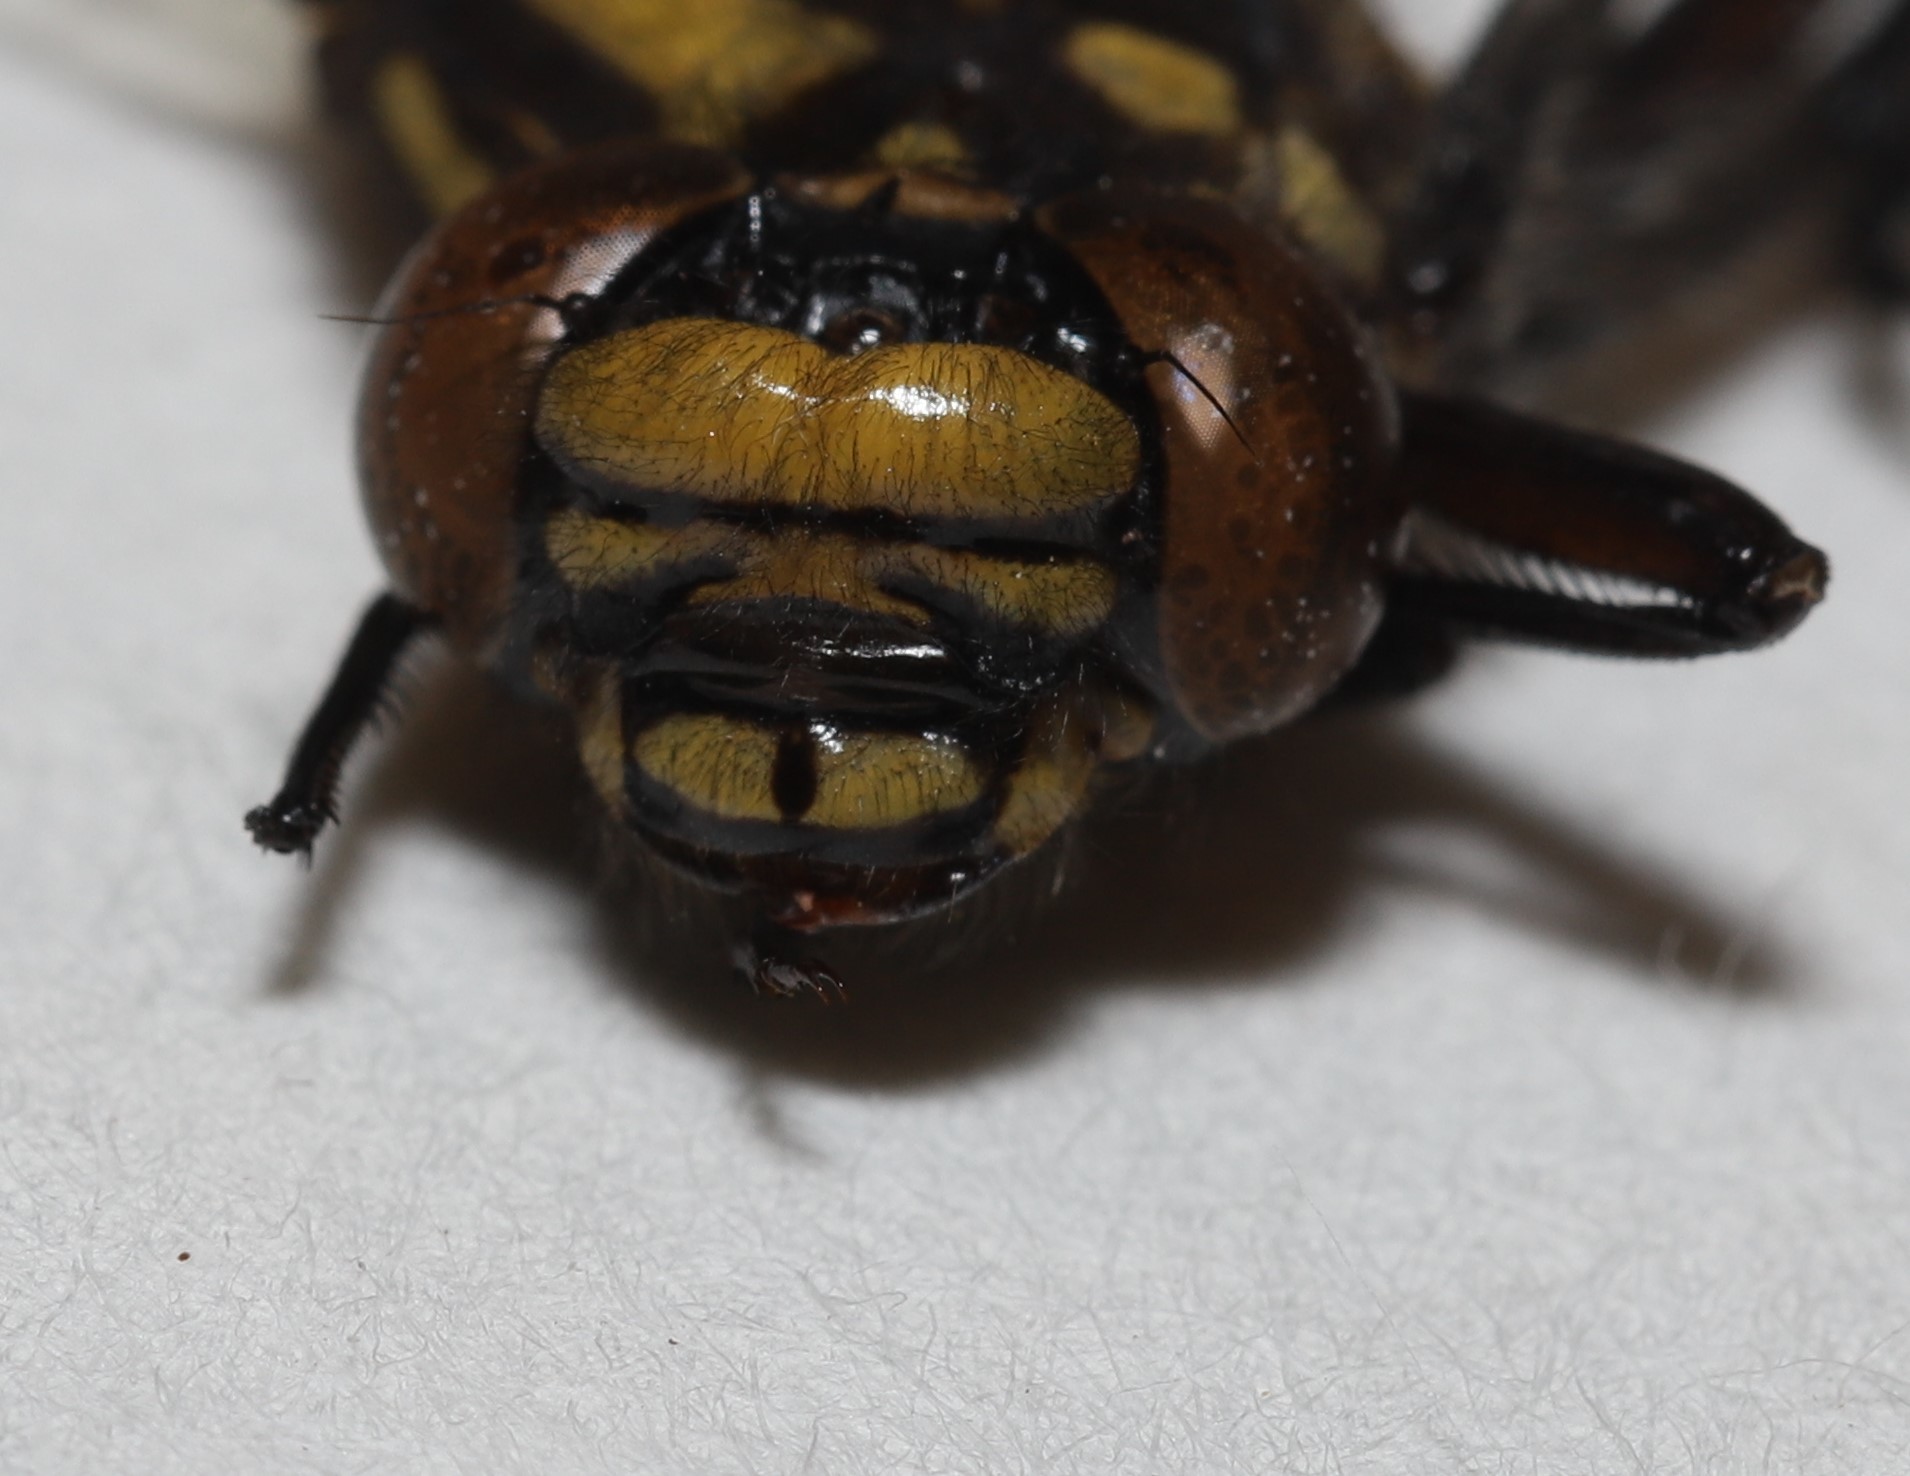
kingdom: Animalia
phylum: Arthropoda
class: Insecta
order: Odonata
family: Gomphidae
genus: Hylogomphus
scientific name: Hylogomphus adelphus
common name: Mustached clubtail
